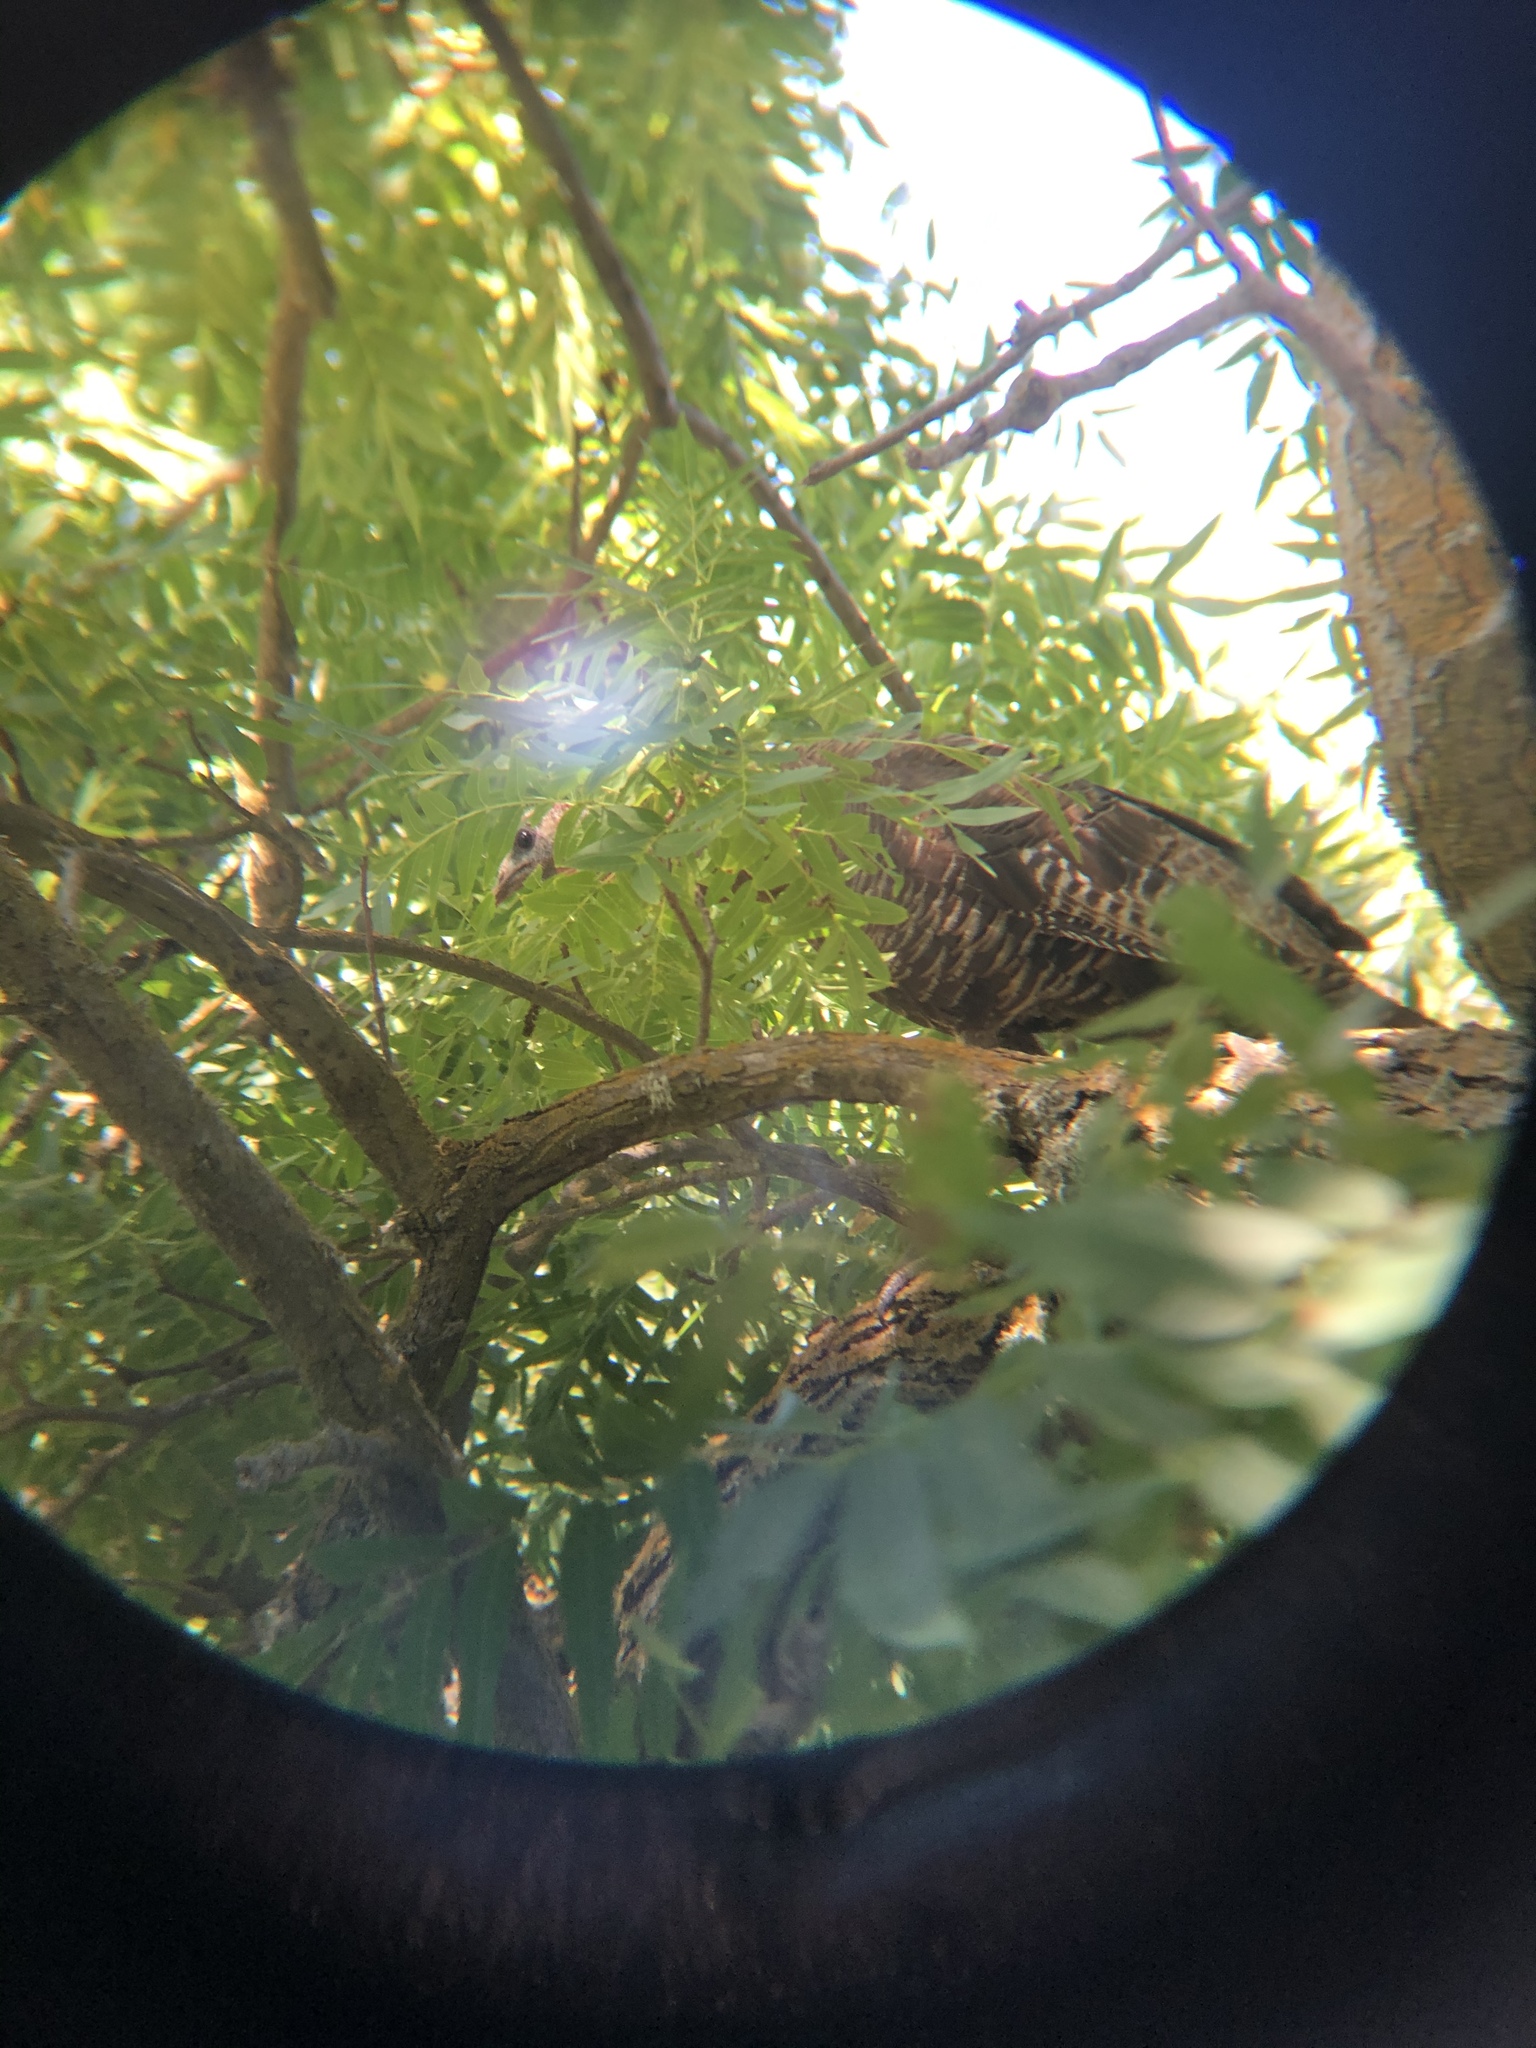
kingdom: Animalia
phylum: Chordata
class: Aves
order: Galliformes
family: Phasianidae
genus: Meleagris
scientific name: Meleagris gallopavo
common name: Wild turkey
